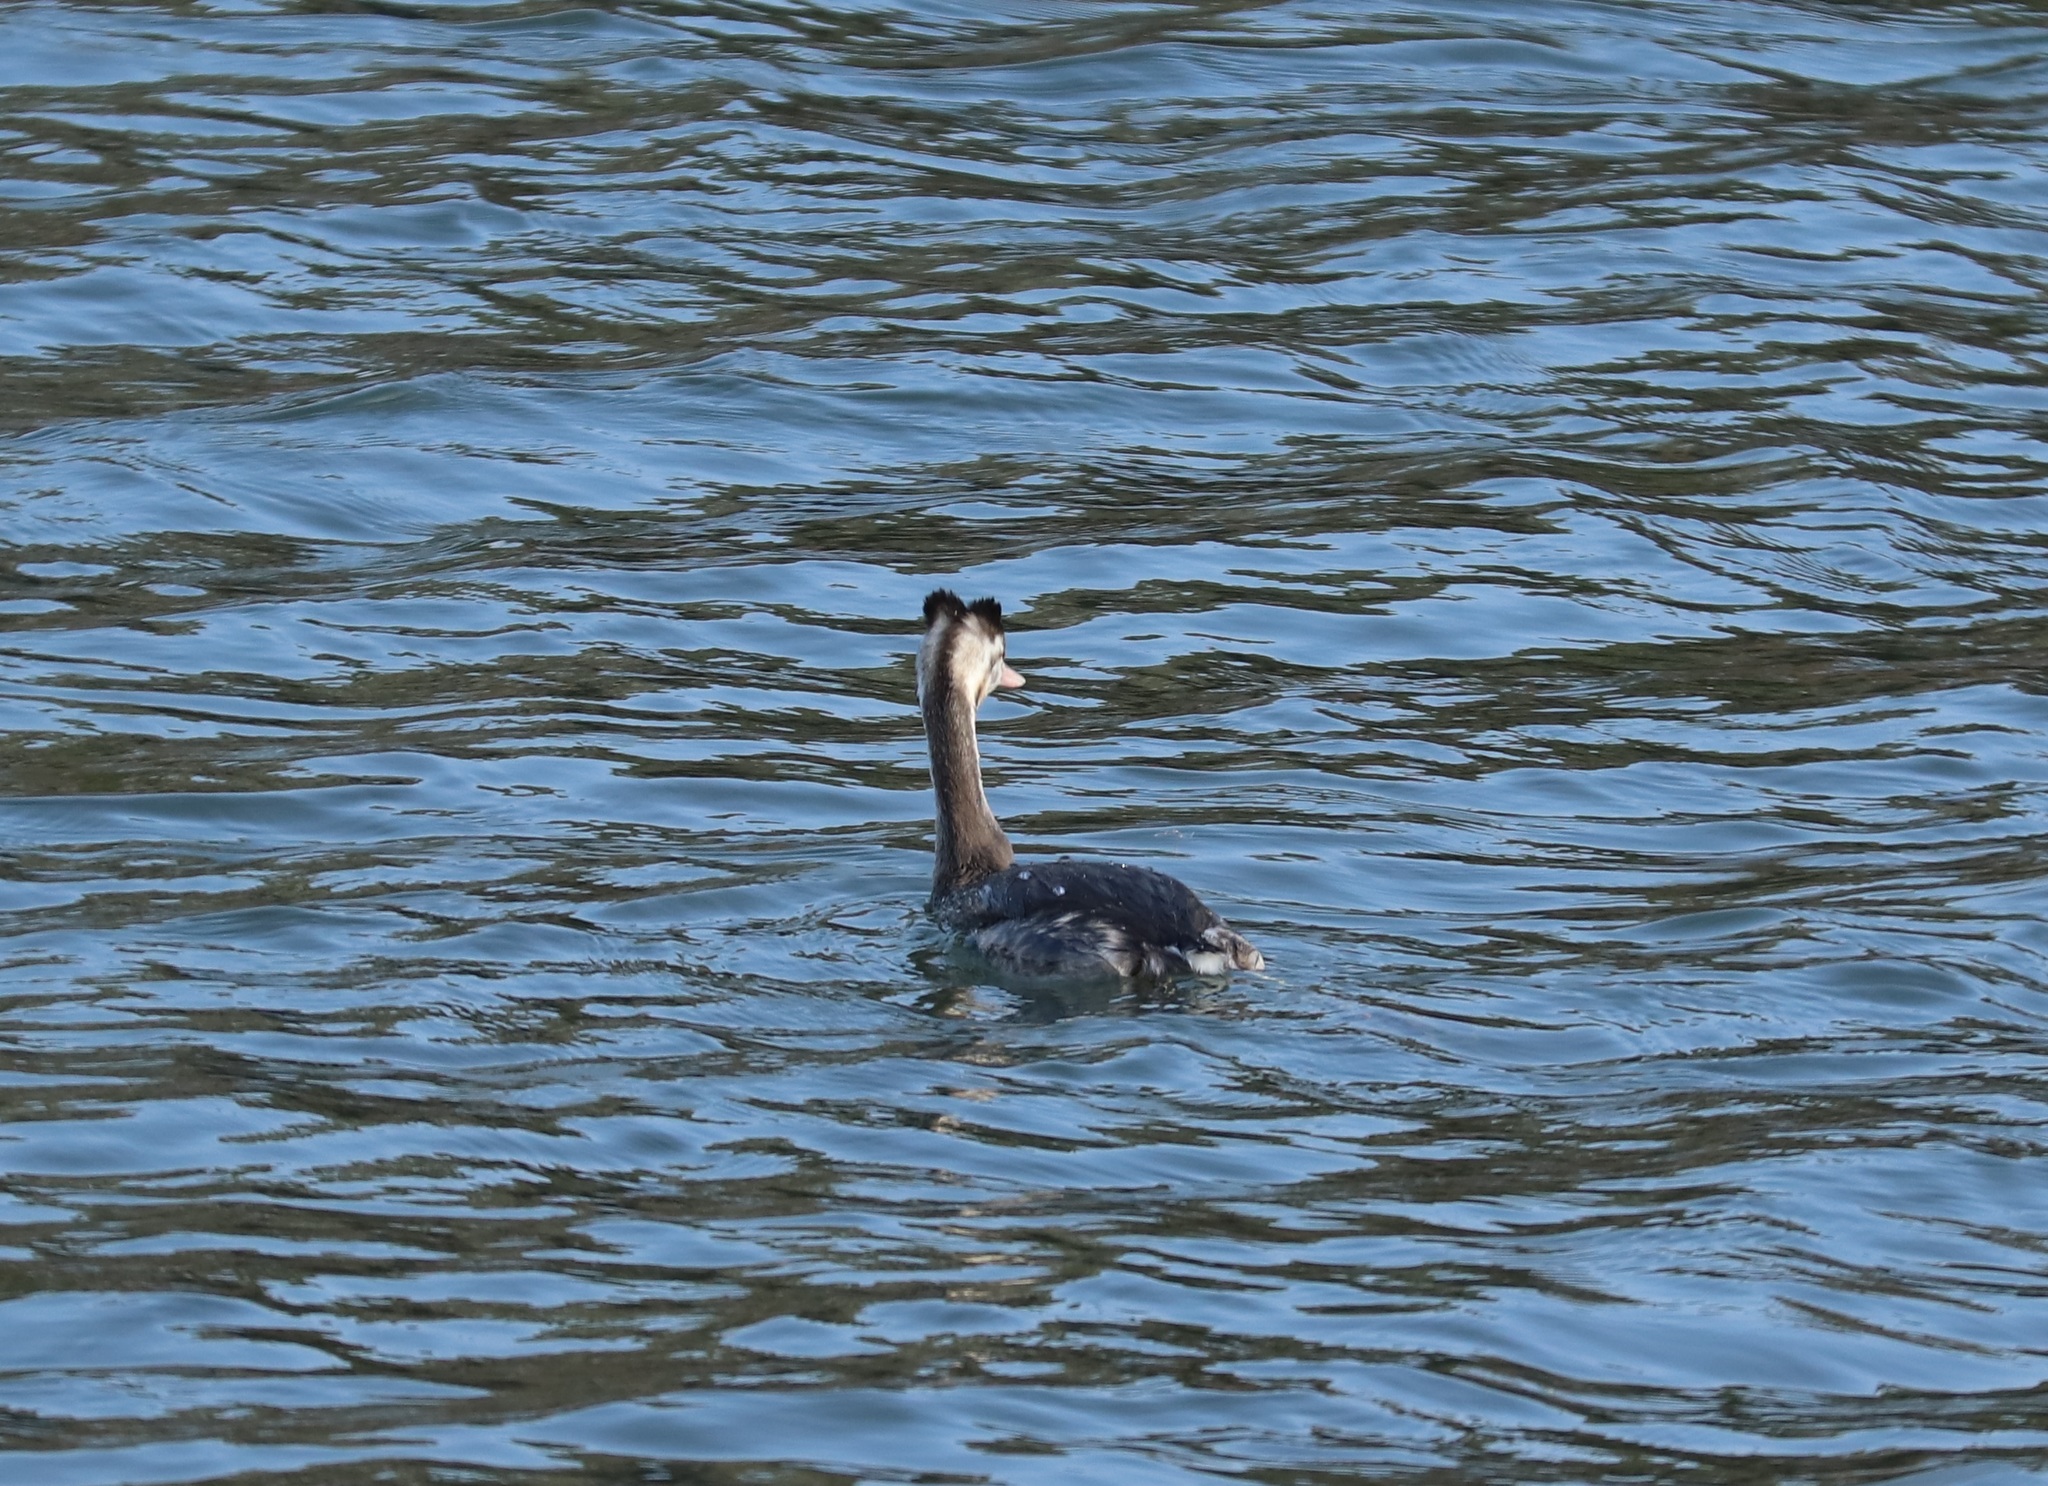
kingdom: Animalia
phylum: Chordata
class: Aves
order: Podicipediformes
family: Podicipedidae
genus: Podiceps
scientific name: Podiceps cristatus
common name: Great crested grebe
